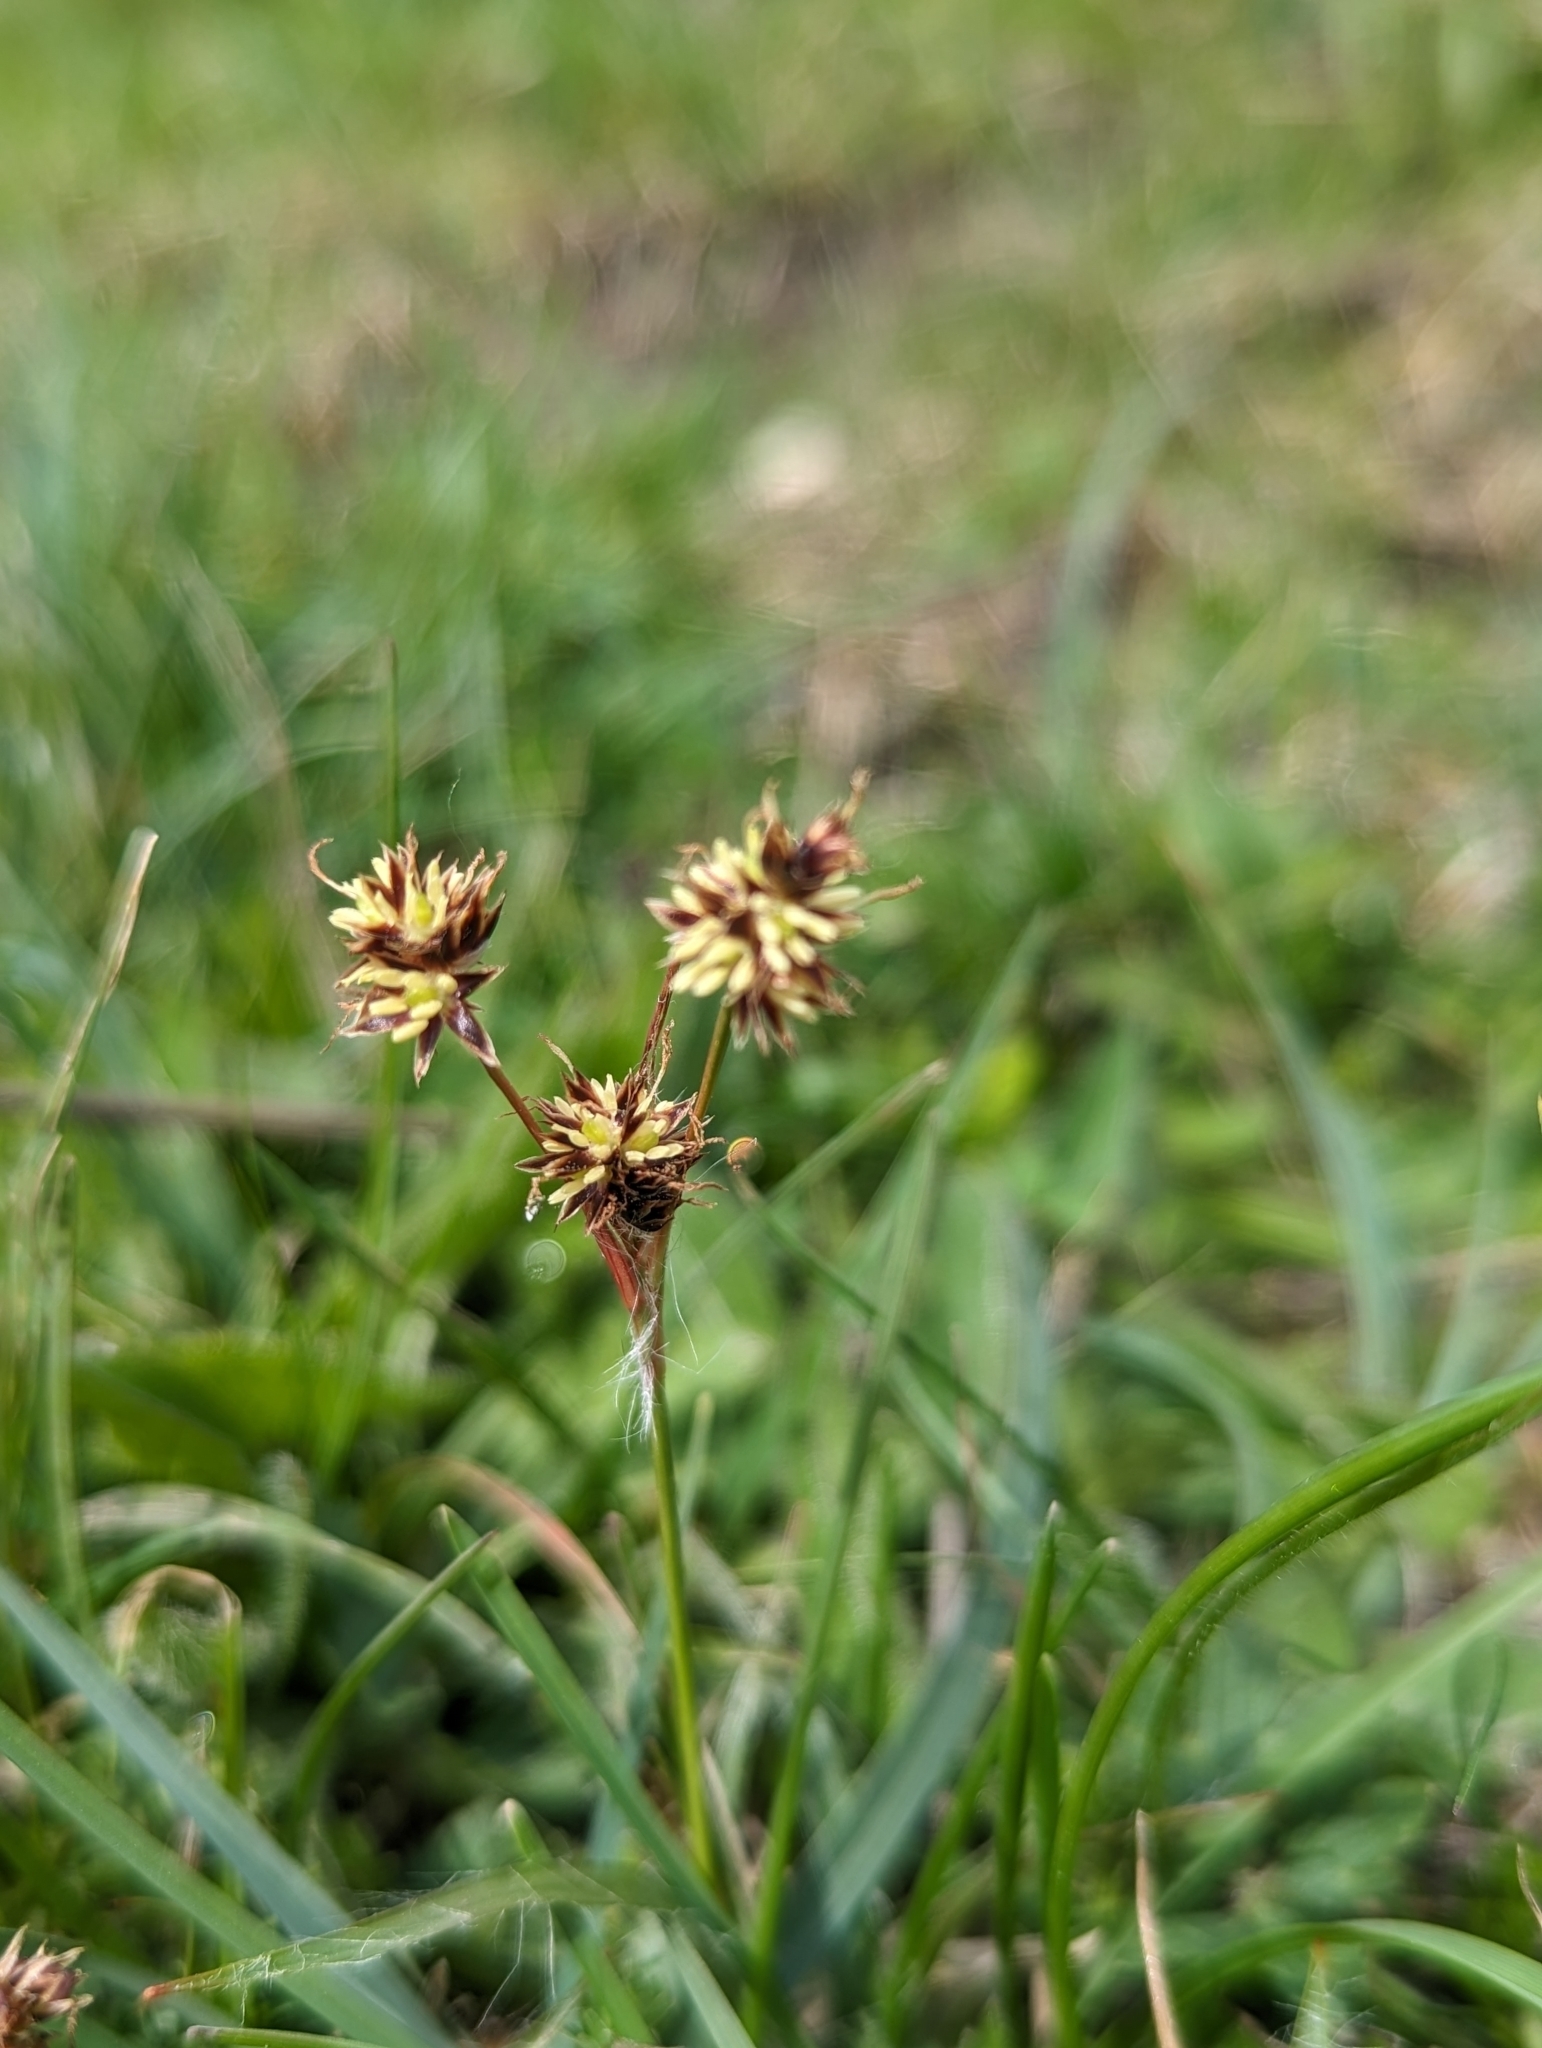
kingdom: Plantae
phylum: Tracheophyta
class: Liliopsida
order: Poales
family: Juncaceae
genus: Luzula
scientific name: Luzula campestris
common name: Field wood-rush
